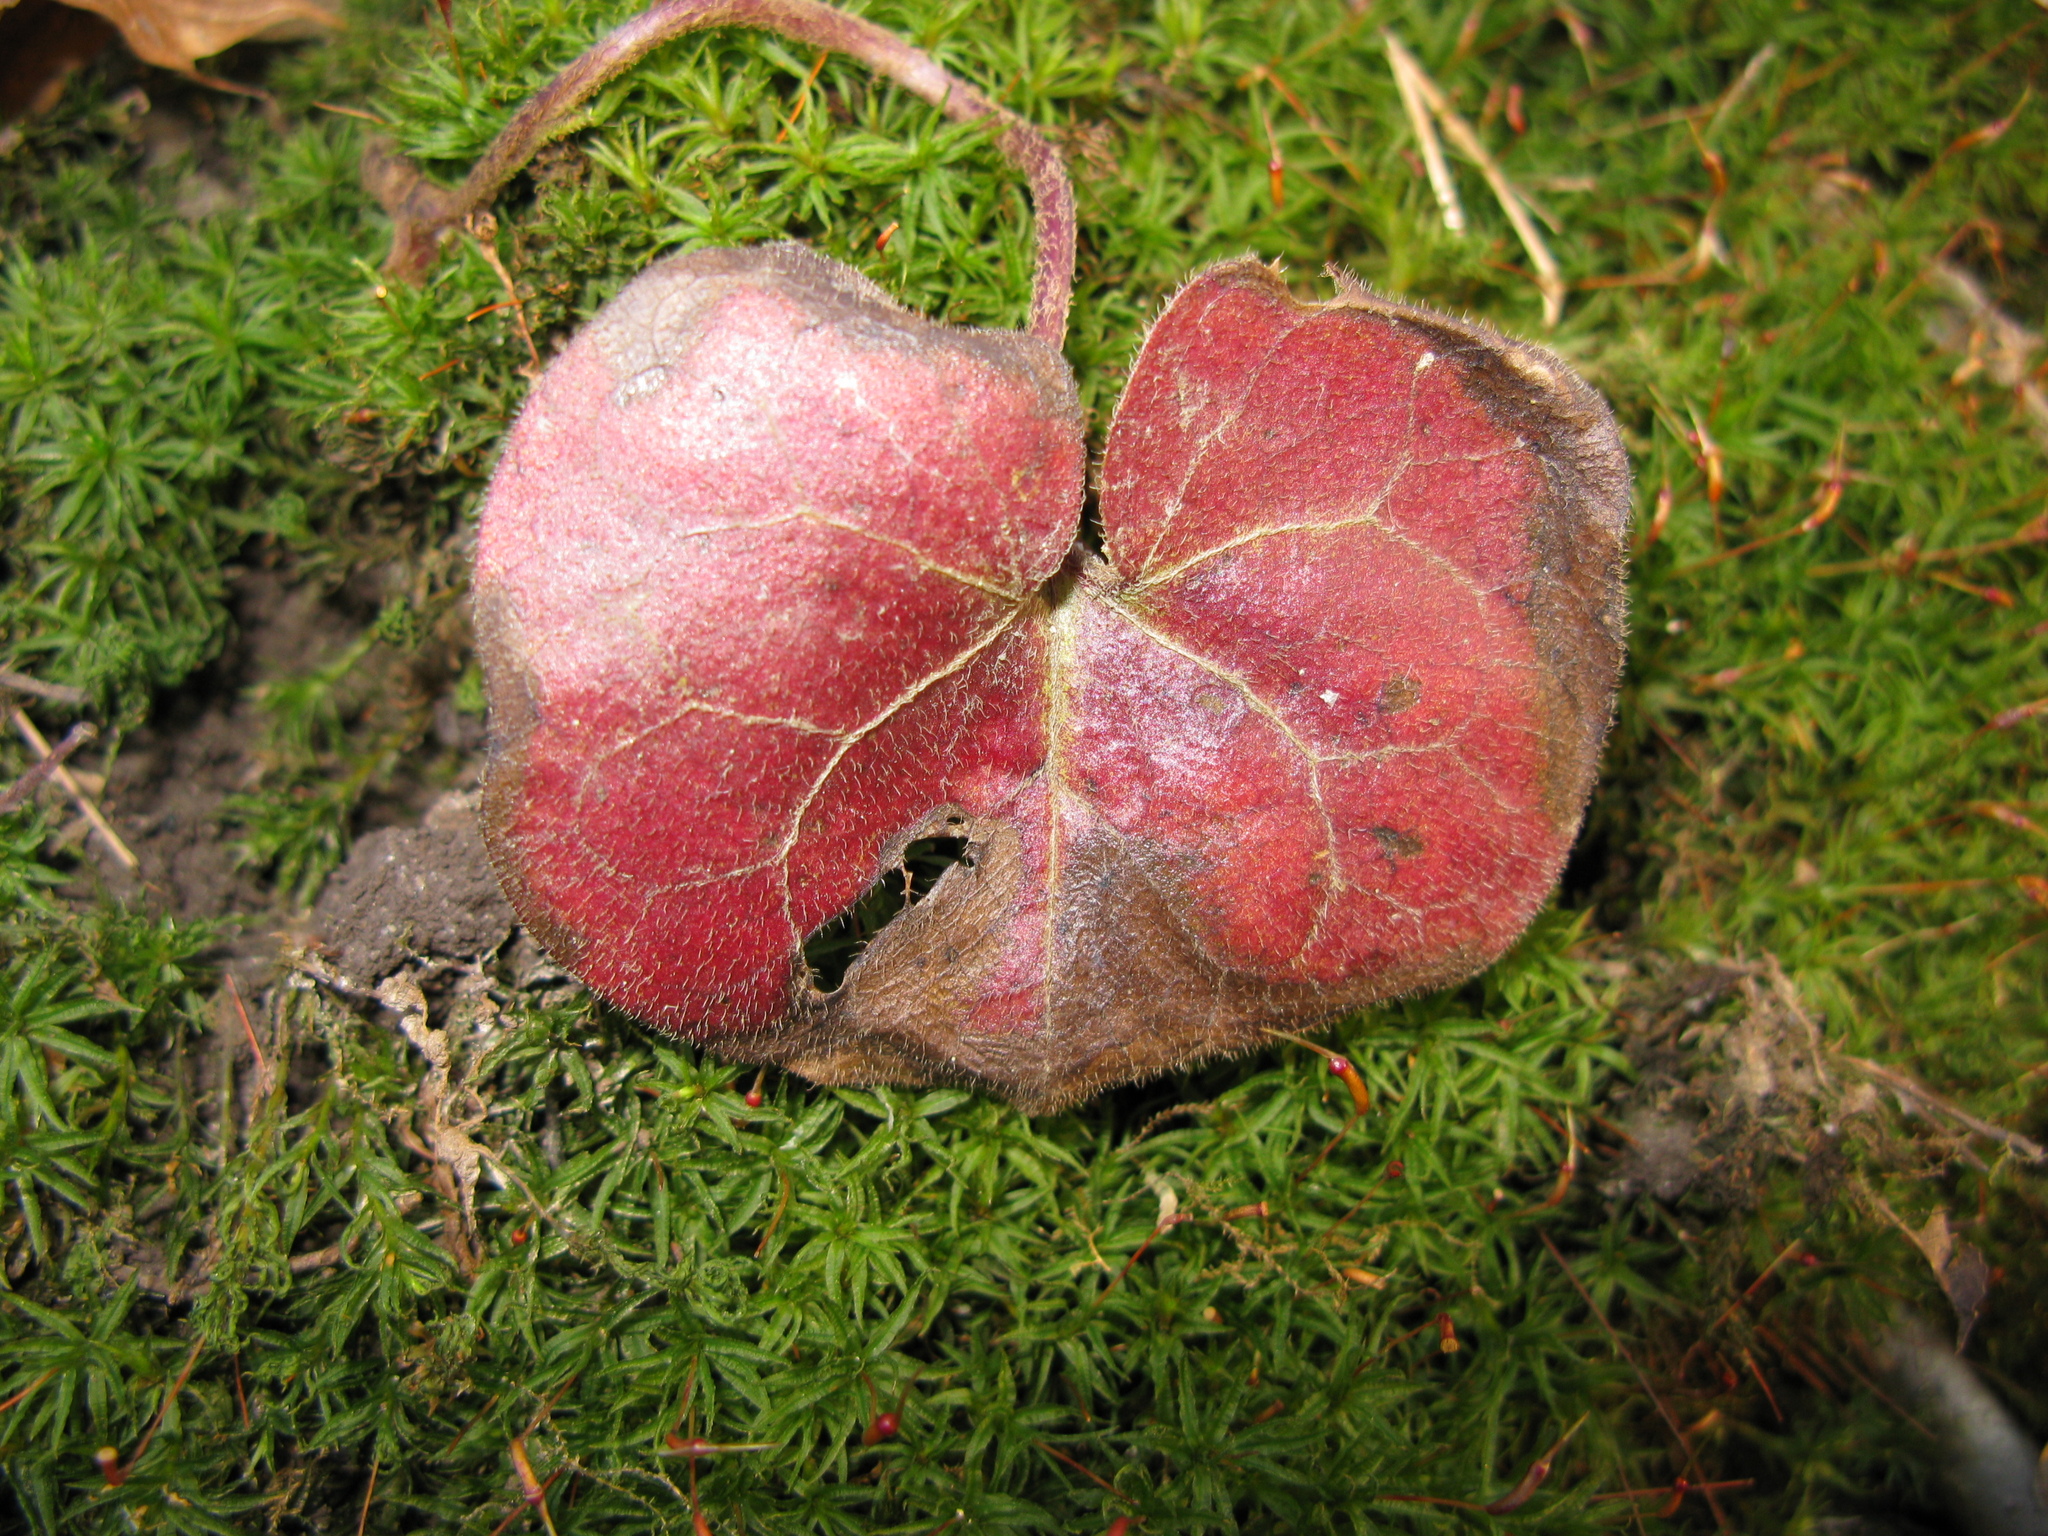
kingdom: Plantae
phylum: Tracheophyta
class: Magnoliopsida
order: Piperales
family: Aristolochiaceae
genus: Asarum
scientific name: Asarum europaeum
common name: Asarabacca
